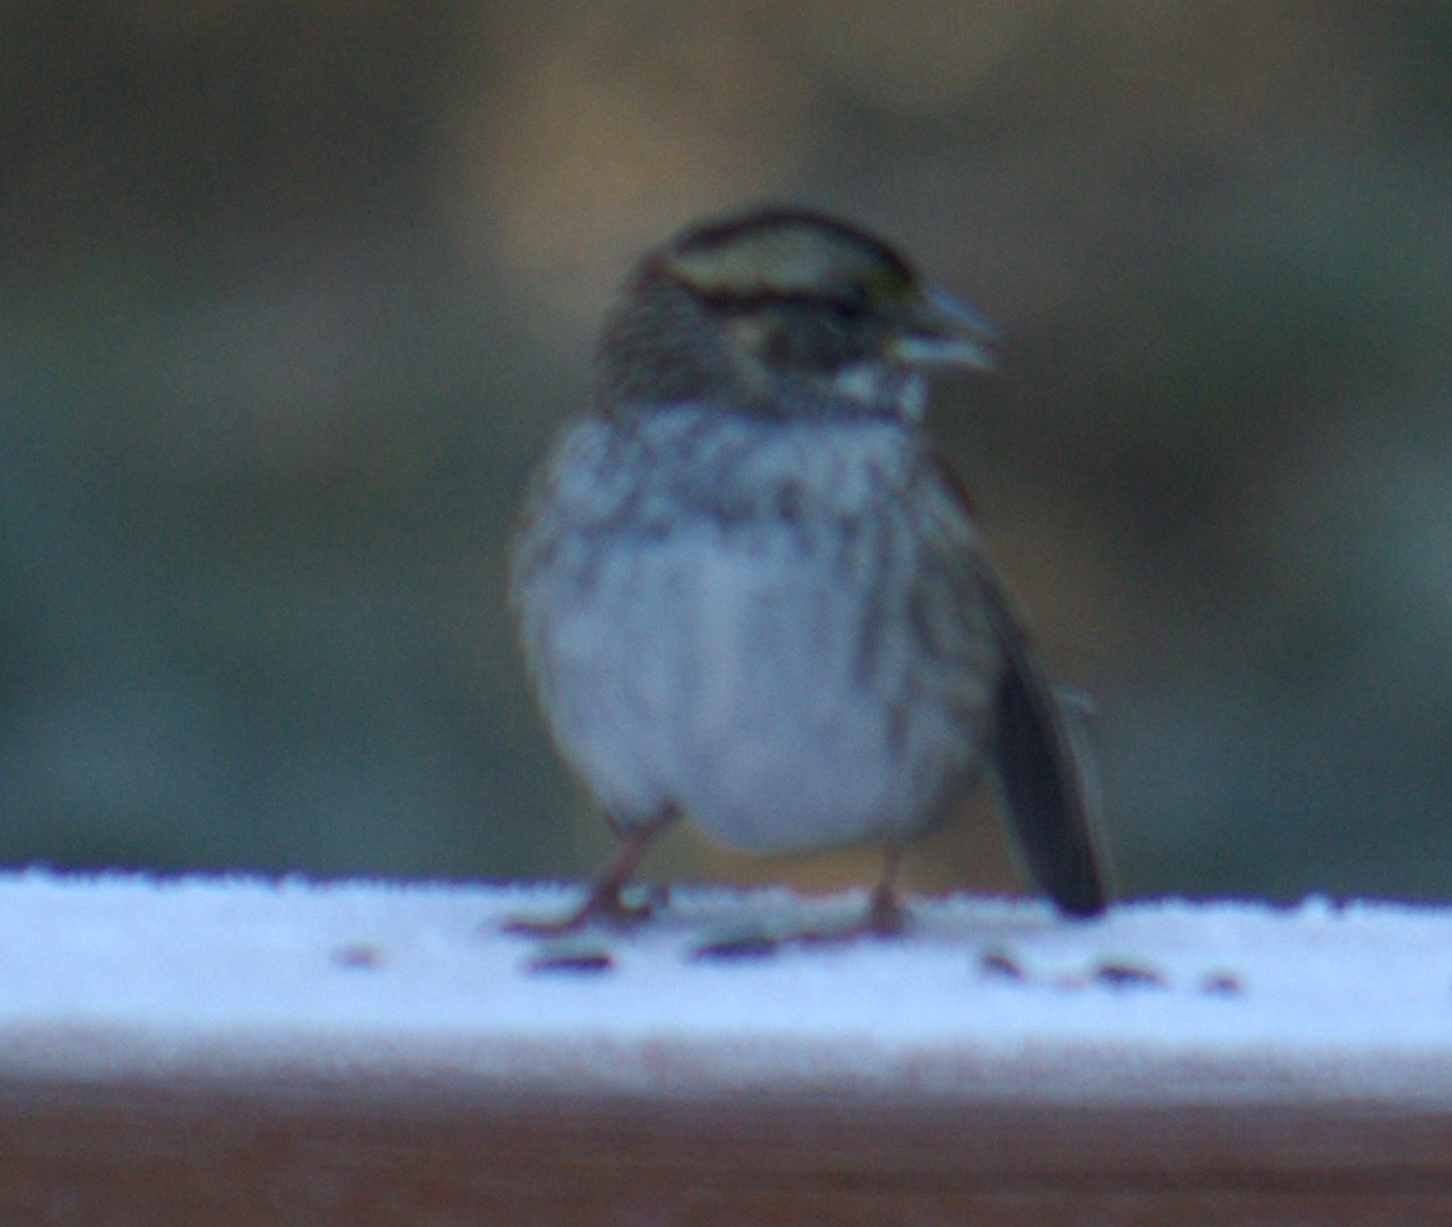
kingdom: Animalia
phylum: Chordata
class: Aves
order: Passeriformes
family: Passerellidae
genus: Zonotrichia
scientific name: Zonotrichia albicollis
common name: White-throated sparrow
